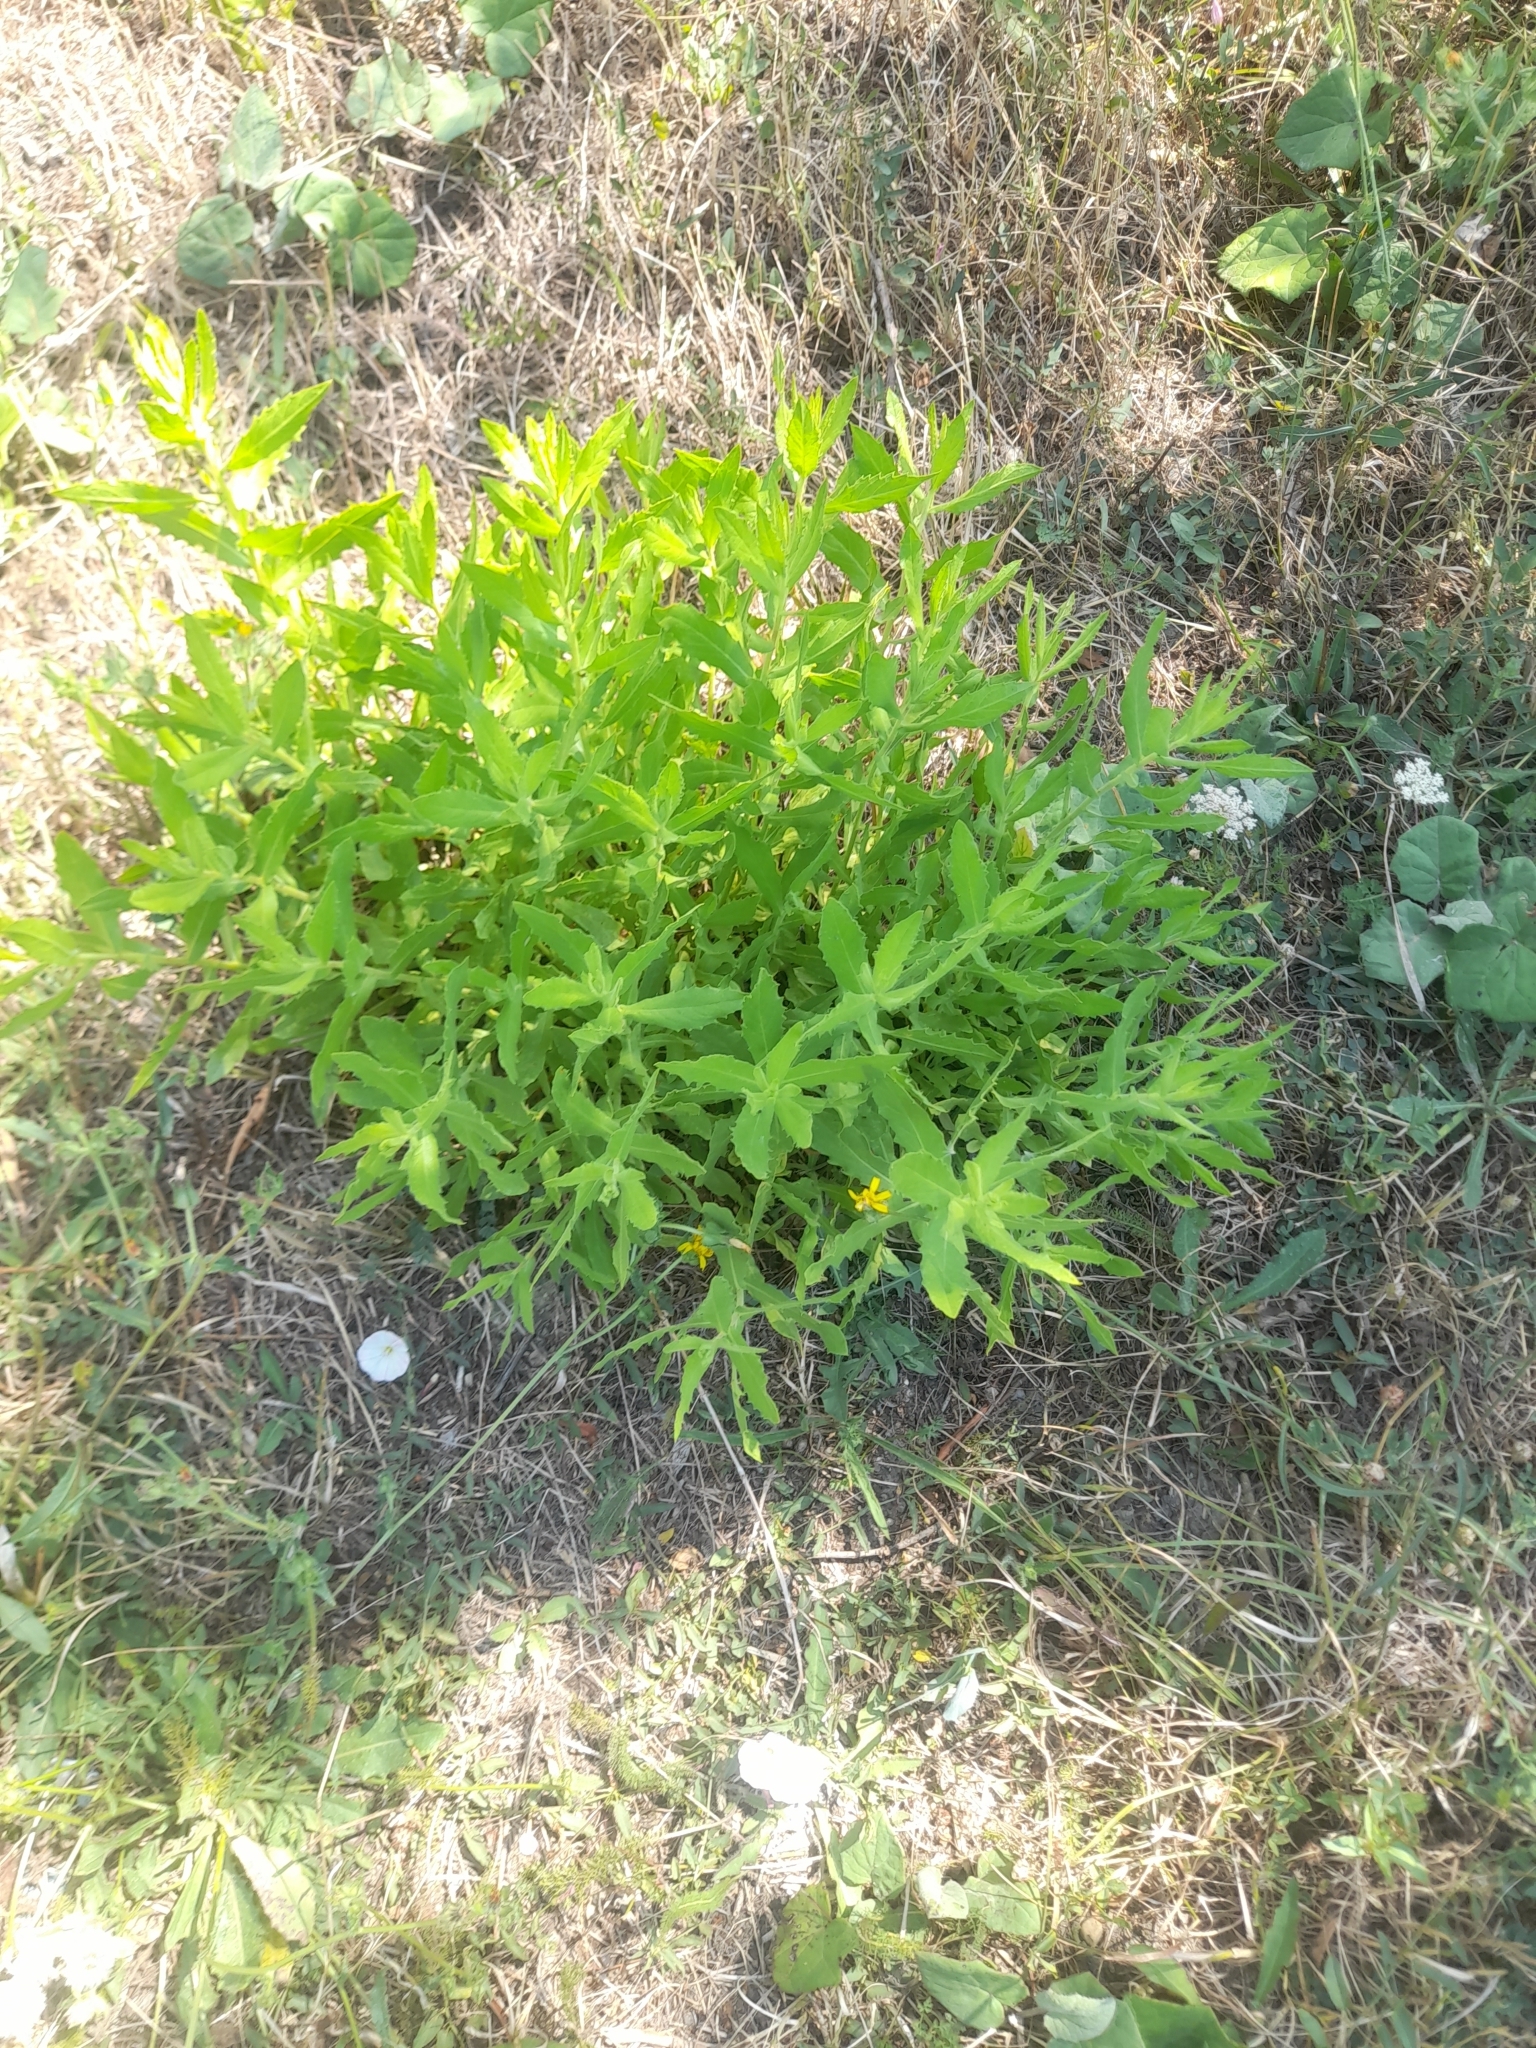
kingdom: Plantae
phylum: Tracheophyta
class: Magnoliopsida
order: Asterales
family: Asteraceae
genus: Dittrichia
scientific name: Dittrichia viscosa
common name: Woody fleabane
